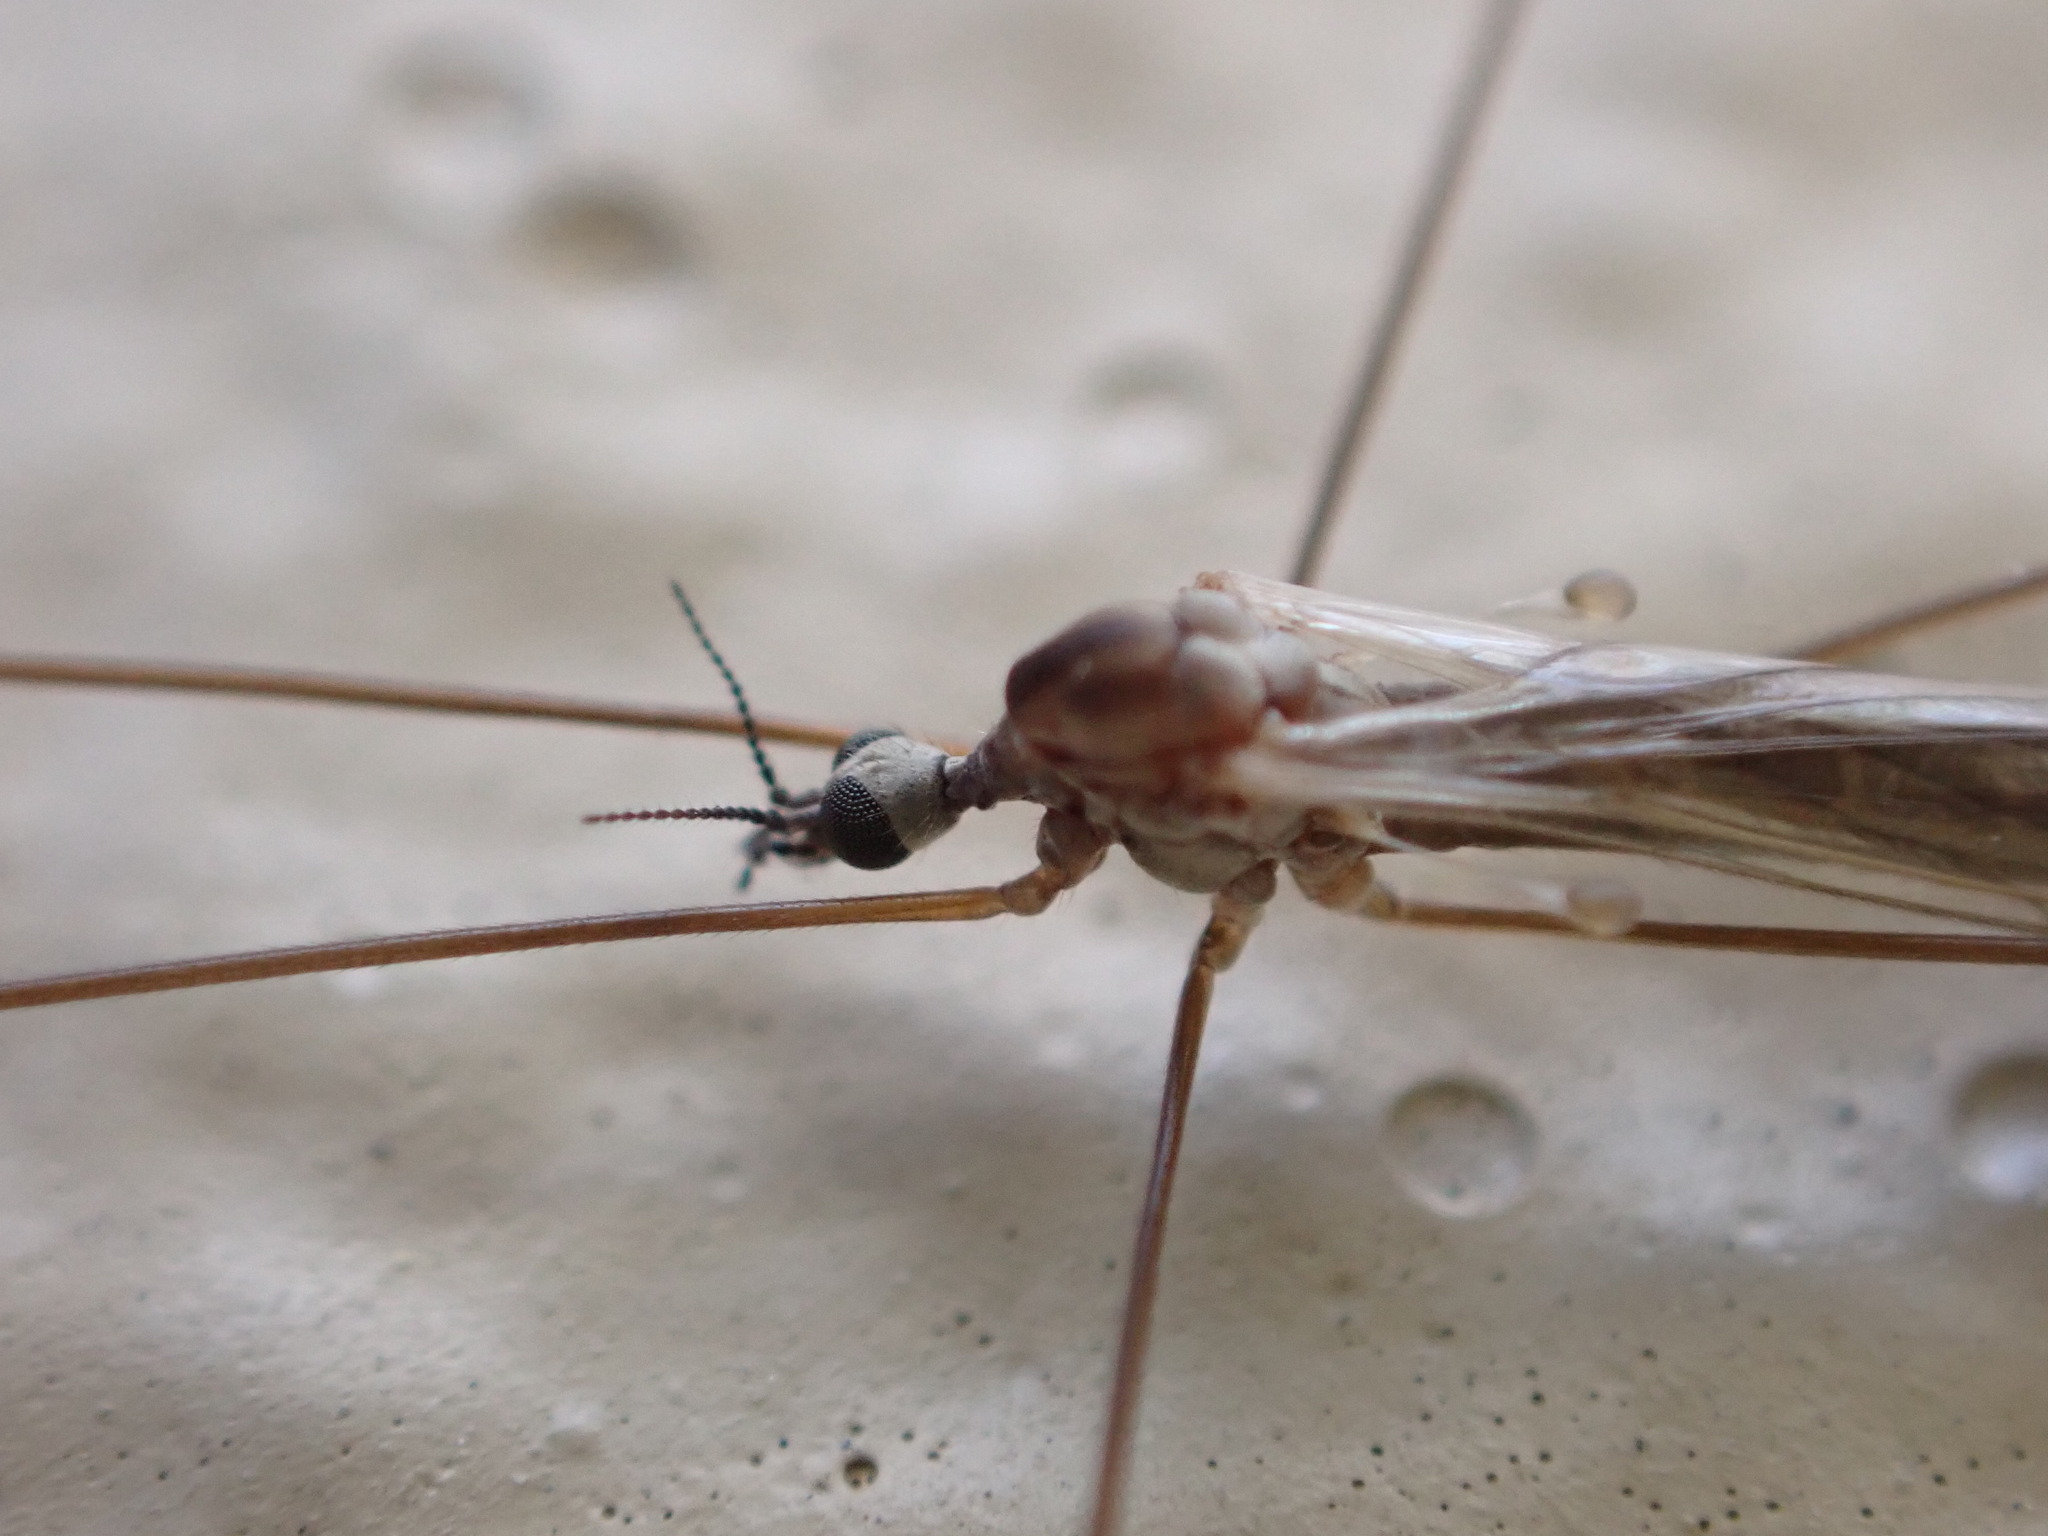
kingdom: Animalia
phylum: Arthropoda
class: Insecta
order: Diptera
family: Limoniidae
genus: Dicranomyia
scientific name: Dicranomyia aegrotans
